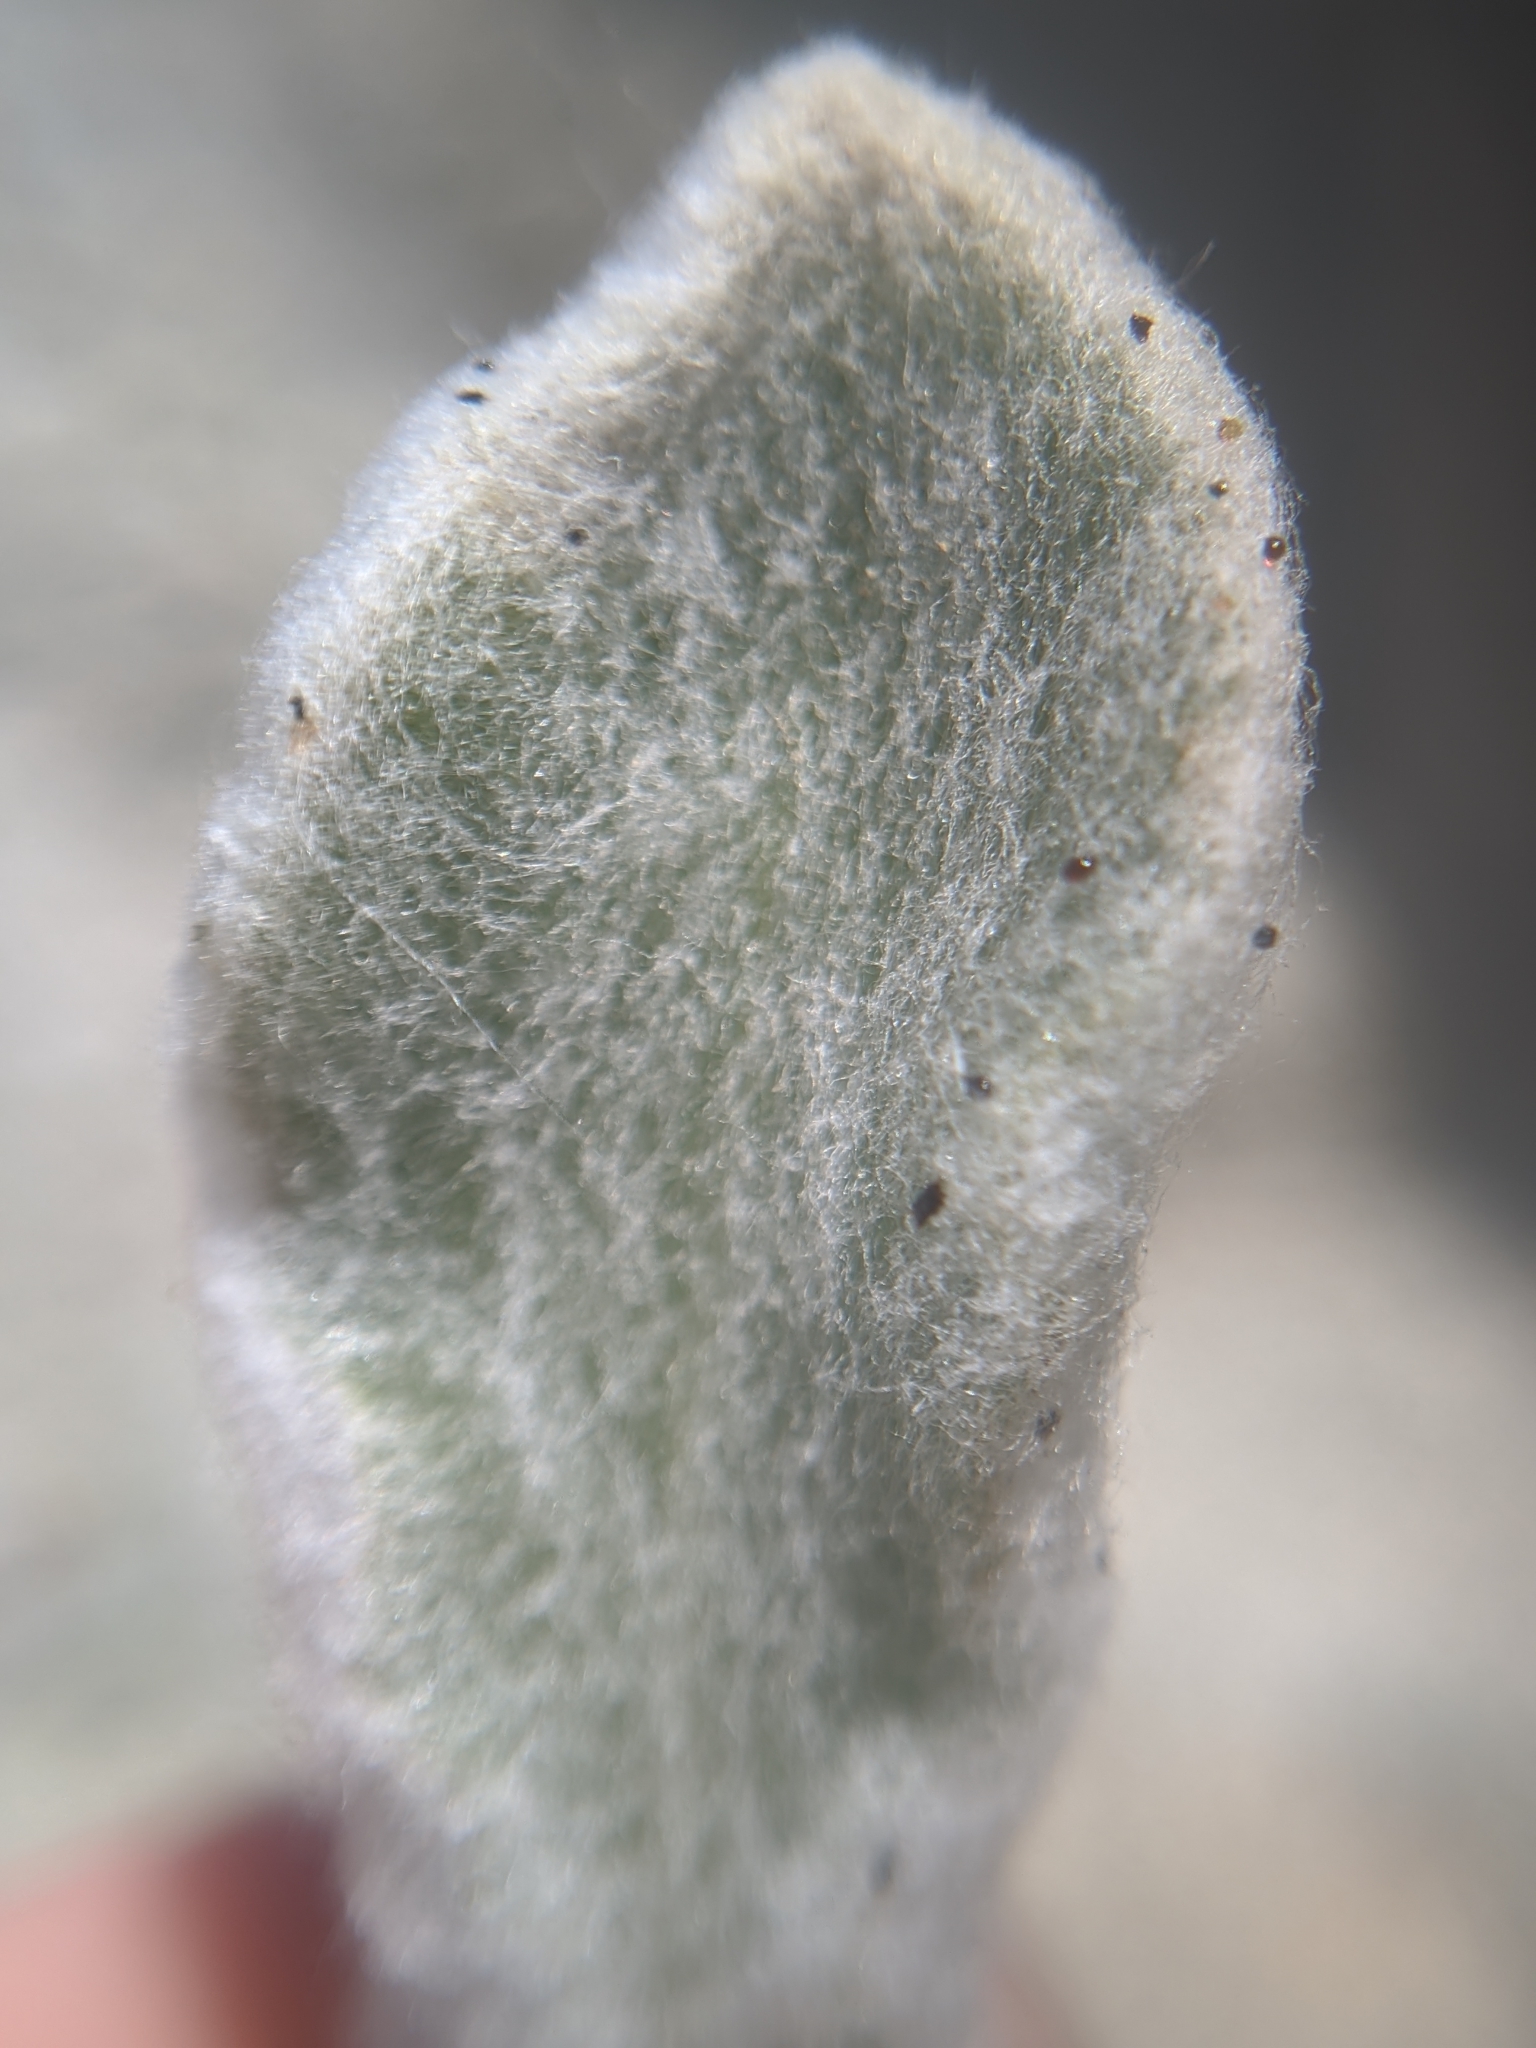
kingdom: Plantae
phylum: Tracheophyta
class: Magnoliopsida
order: Asterales
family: Asteraceae
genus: Hulsea
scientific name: Hulsea vestita
